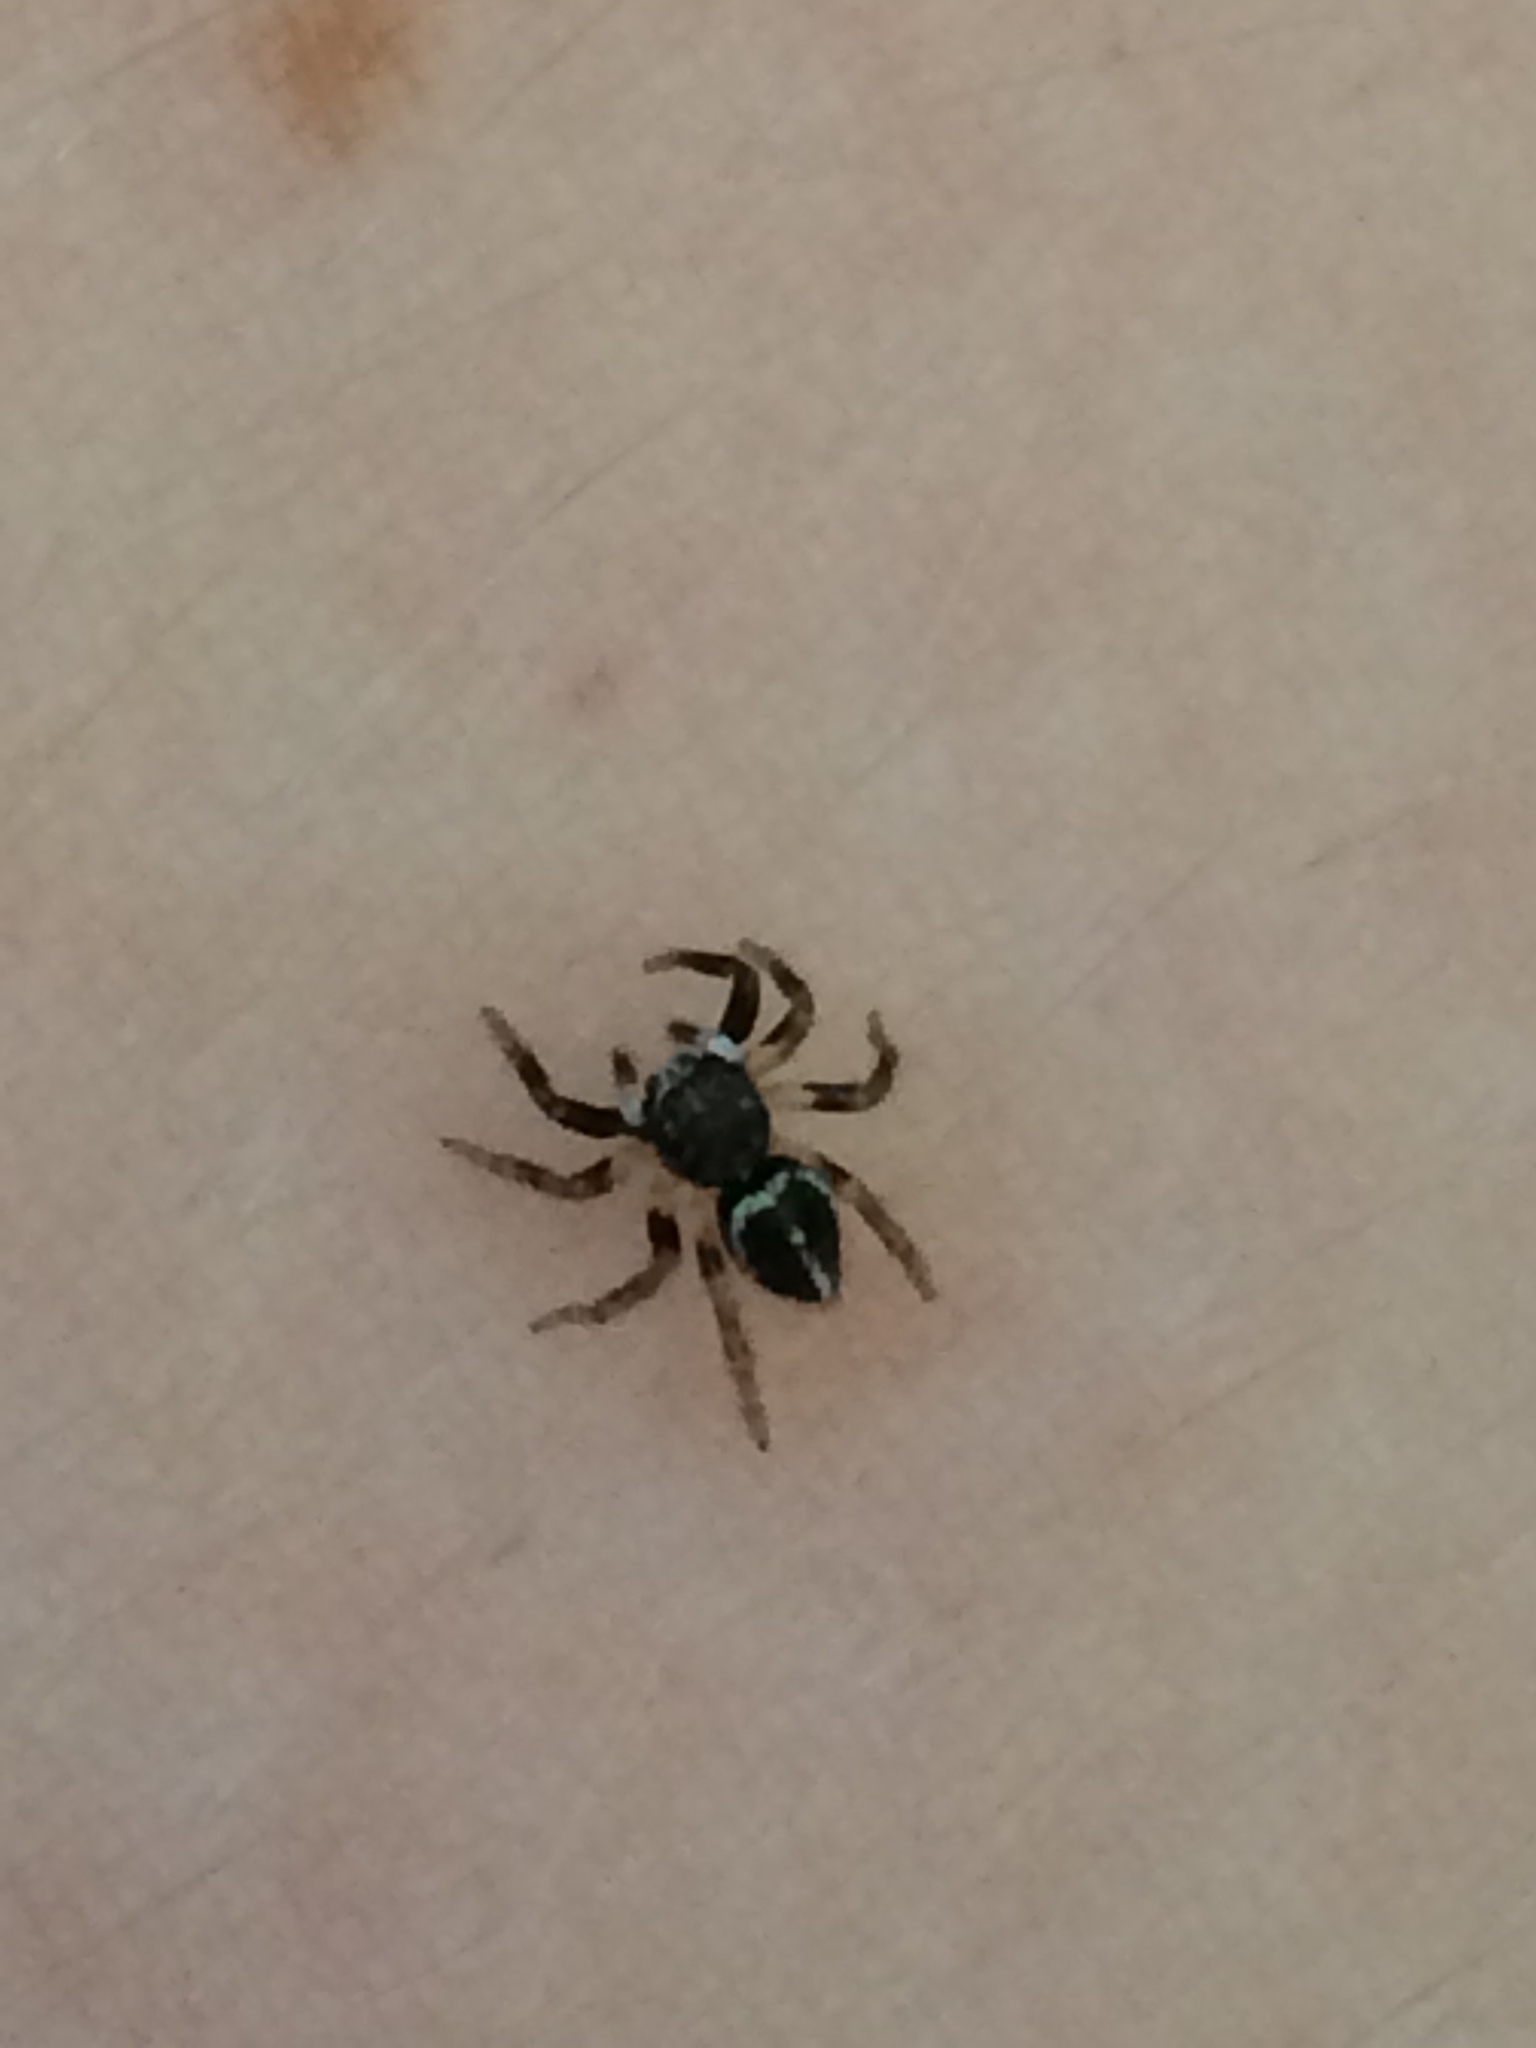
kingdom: Animalia
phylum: Arthropoda
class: Arachnida
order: Araneae
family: Salticidae
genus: Anasaitis
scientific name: Anasaitis canosa
